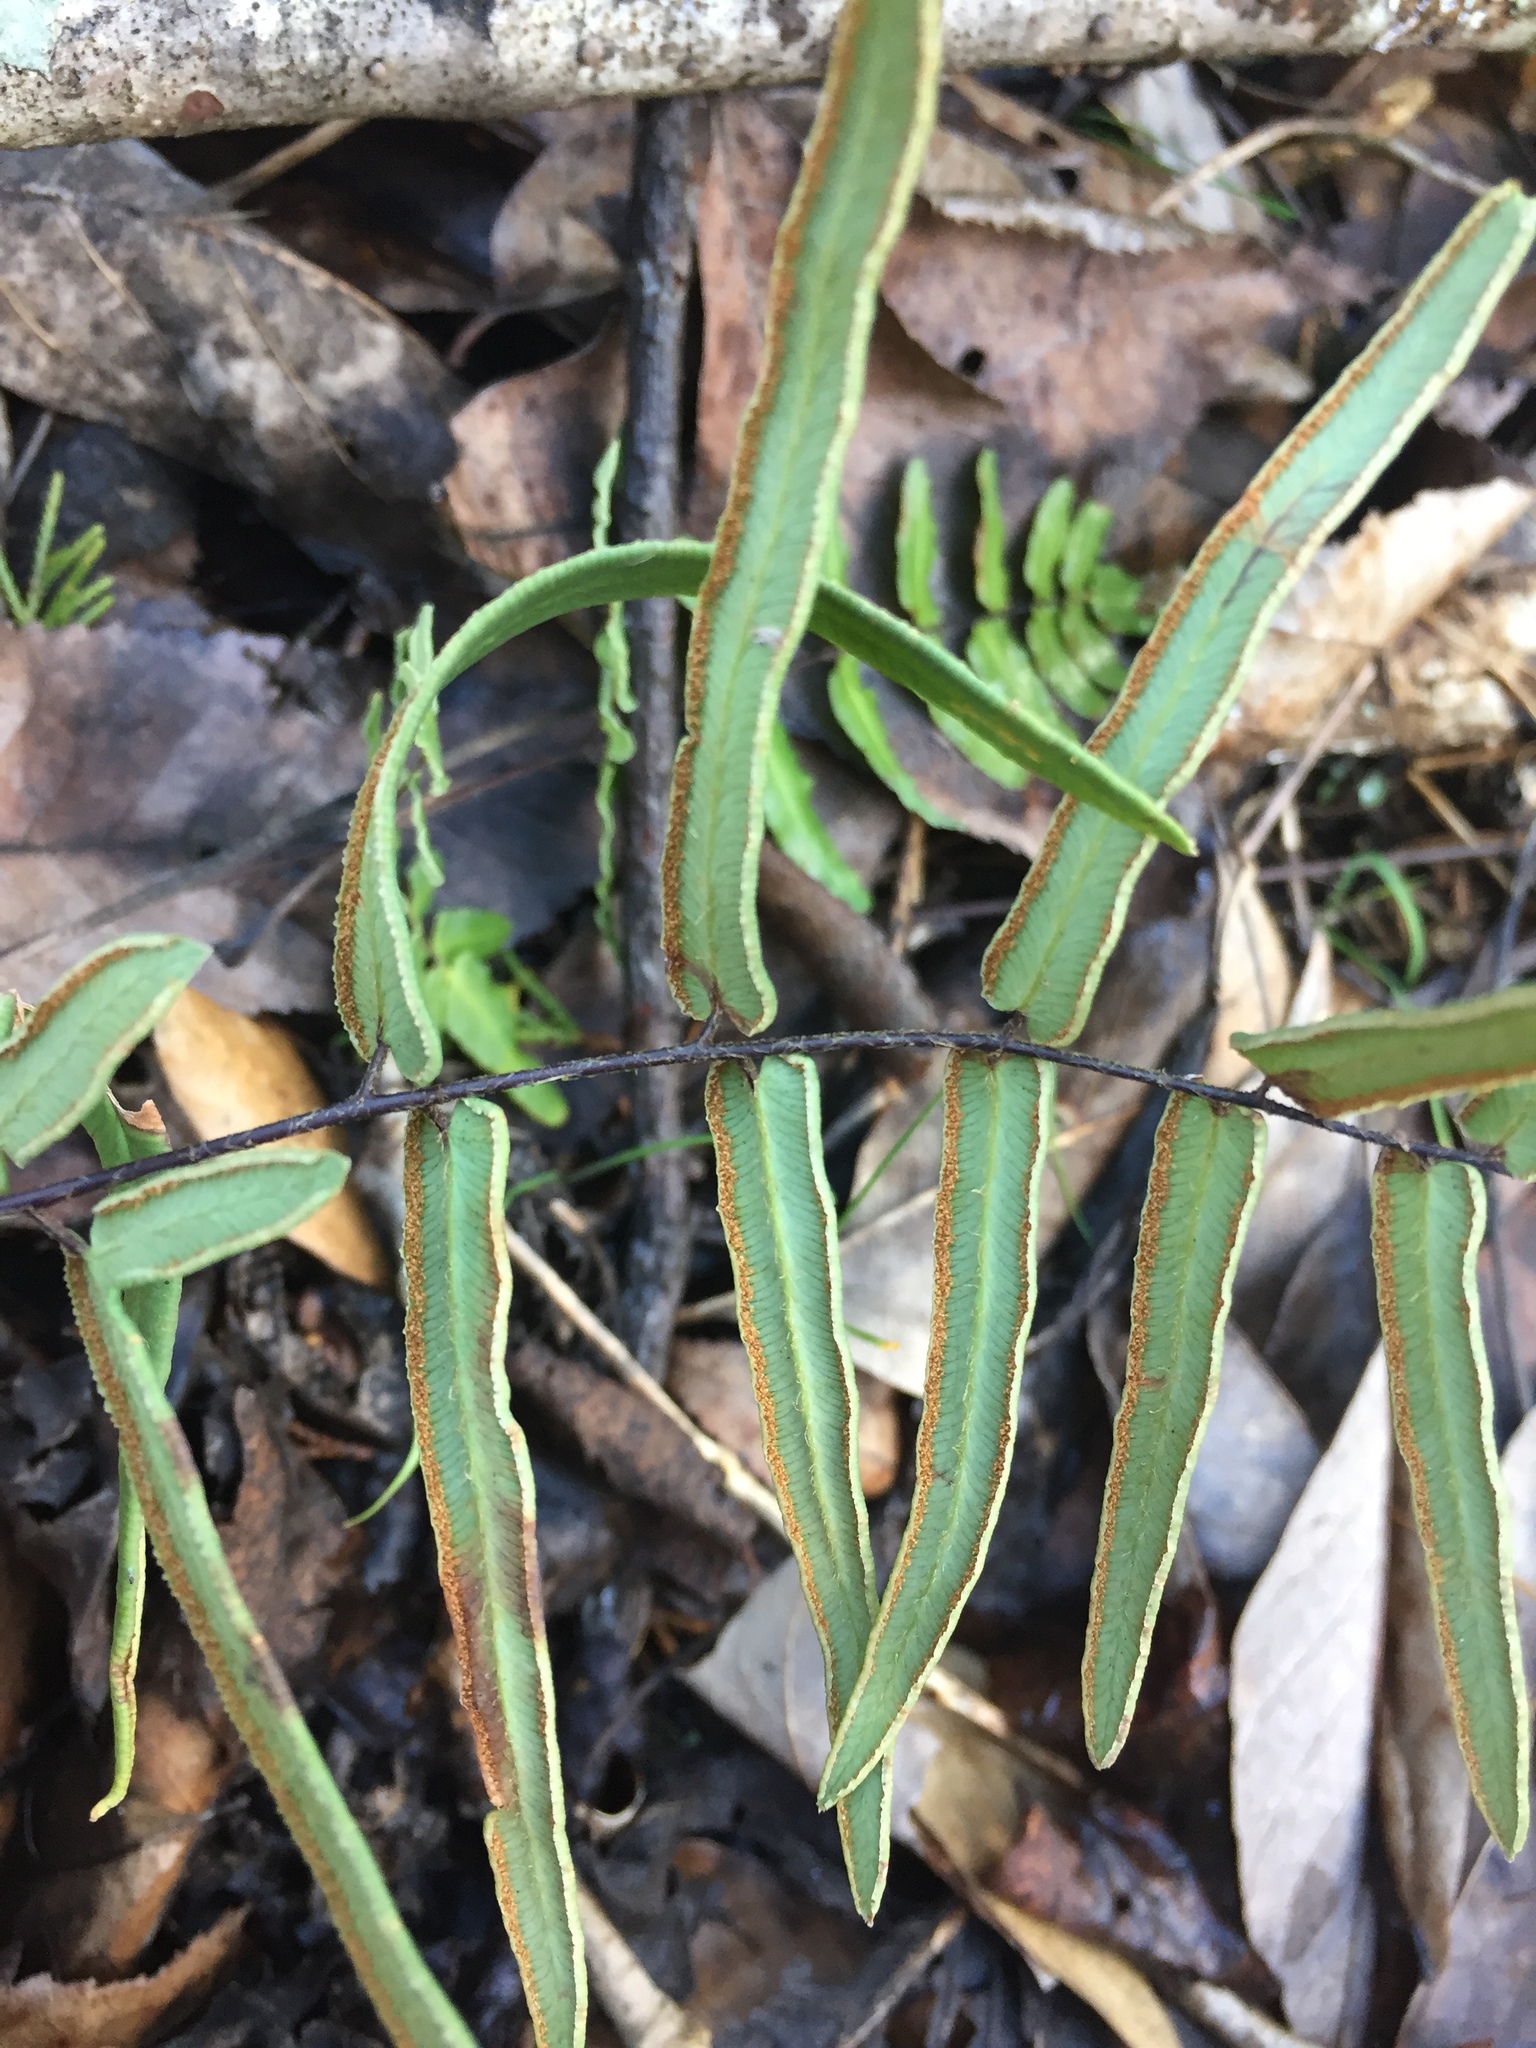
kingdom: Plantae
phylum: Tracheophyta
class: Polypodiopsida
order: Polypodiales
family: Pteridaceae
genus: Pellaea
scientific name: Pellaea atropurpurea
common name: Hairy cliffbrake
